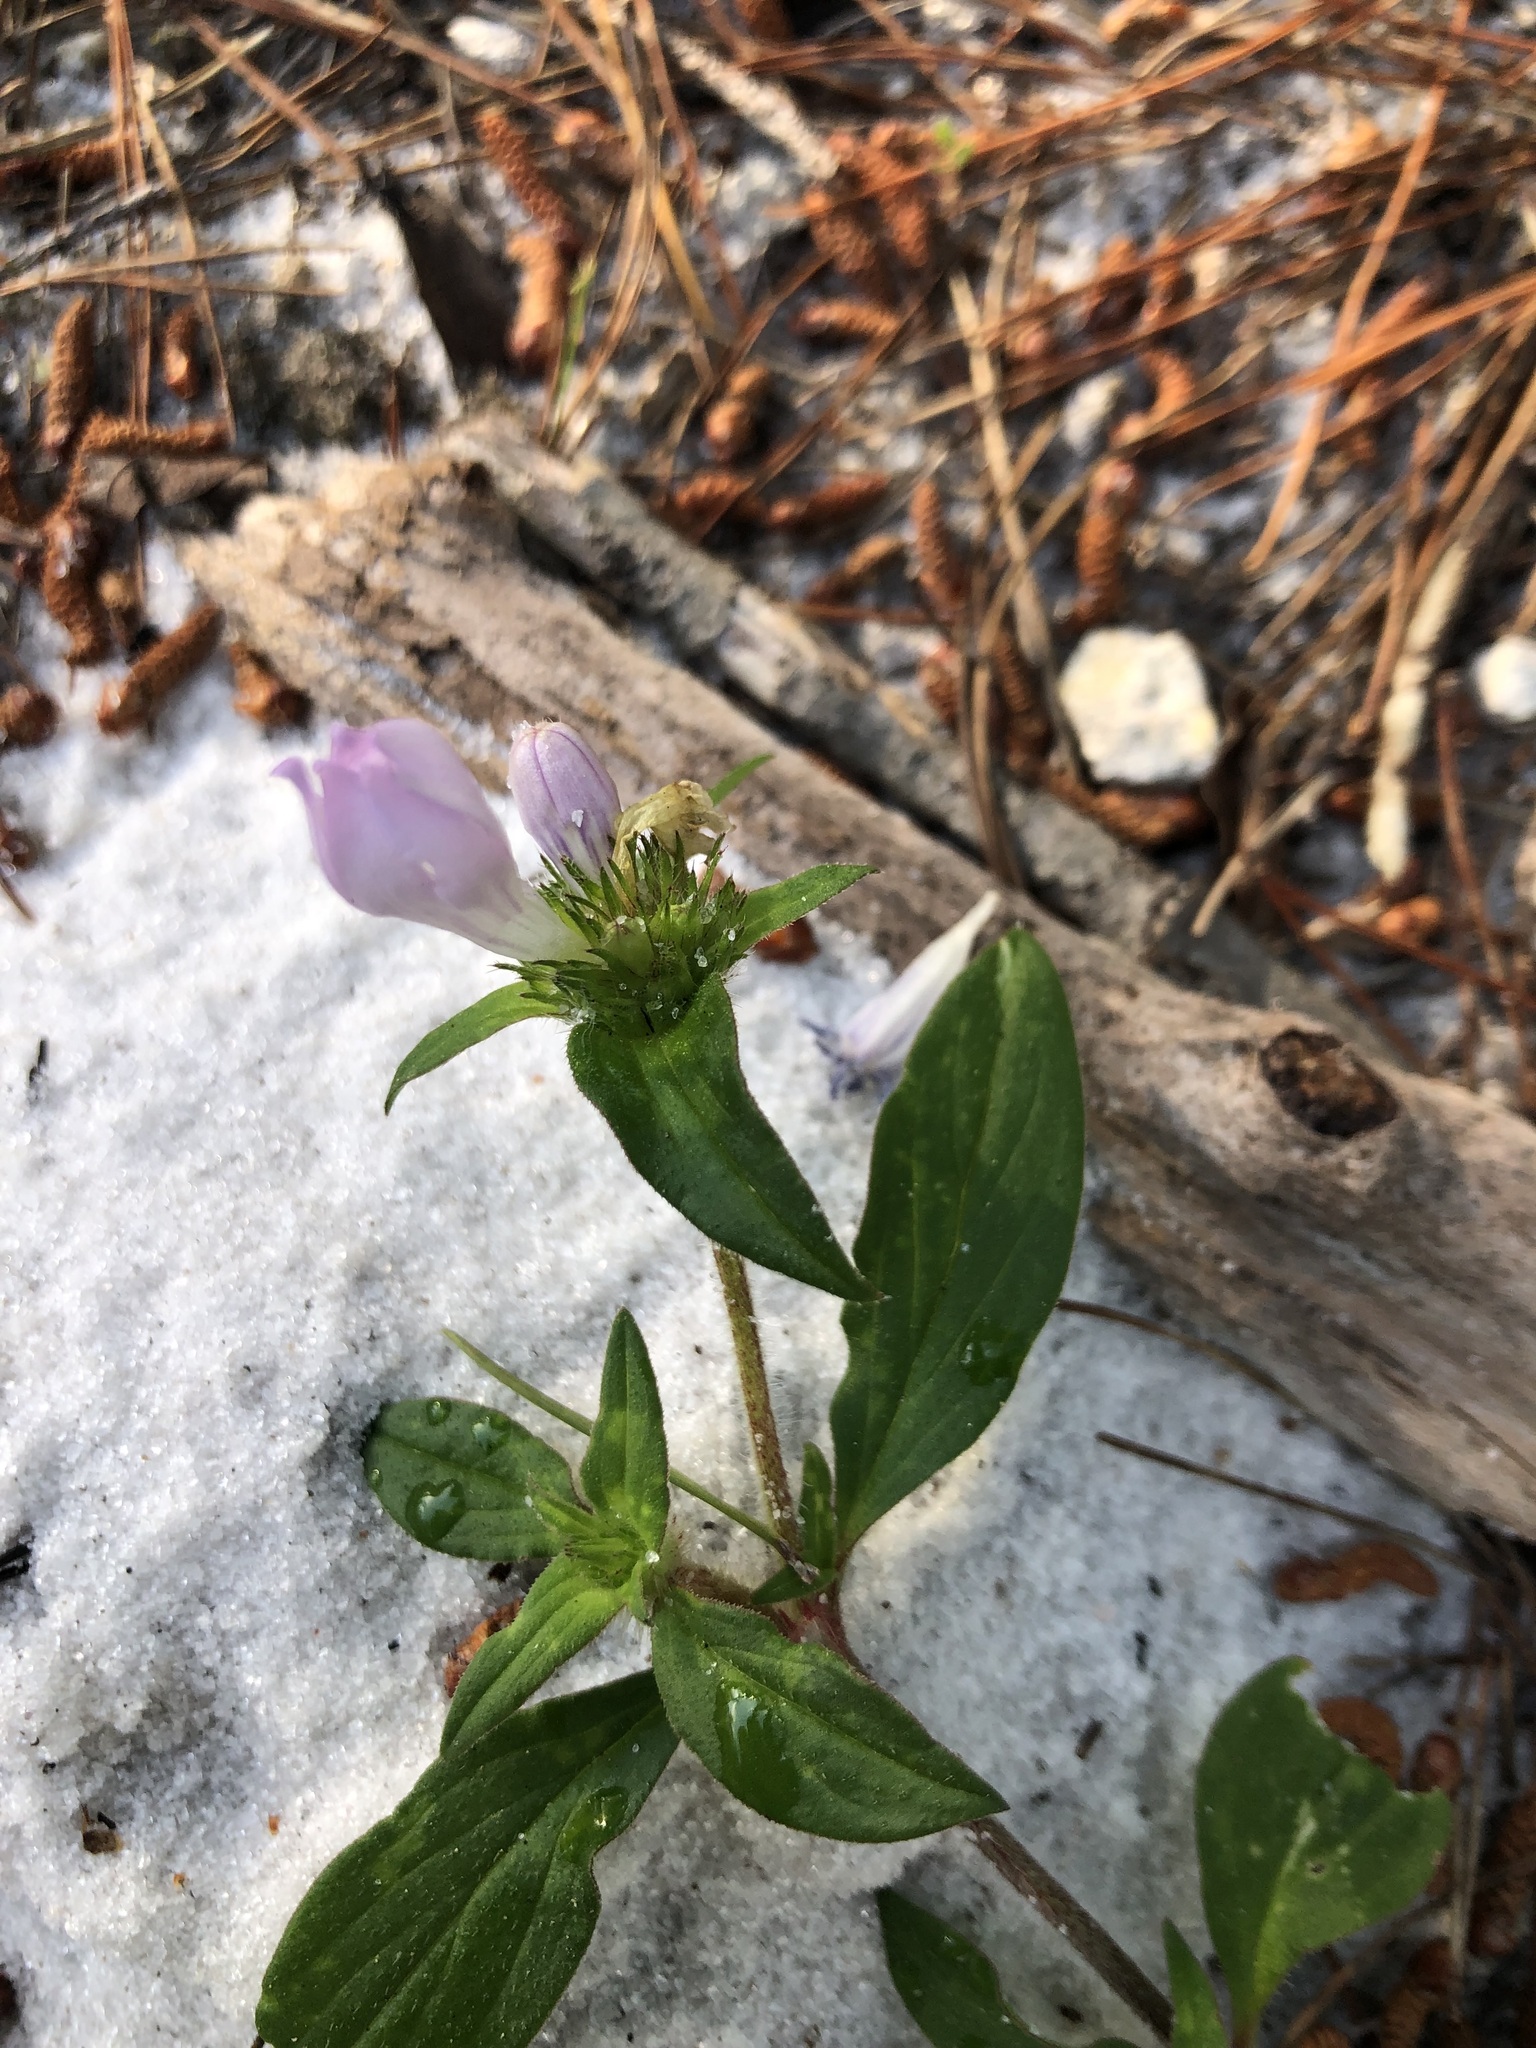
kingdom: Plantae
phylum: Tracheophyta
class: Magnoliopsida
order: Gentianales
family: Rubiaceae
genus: Richardia
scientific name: Richardia grandiflora
